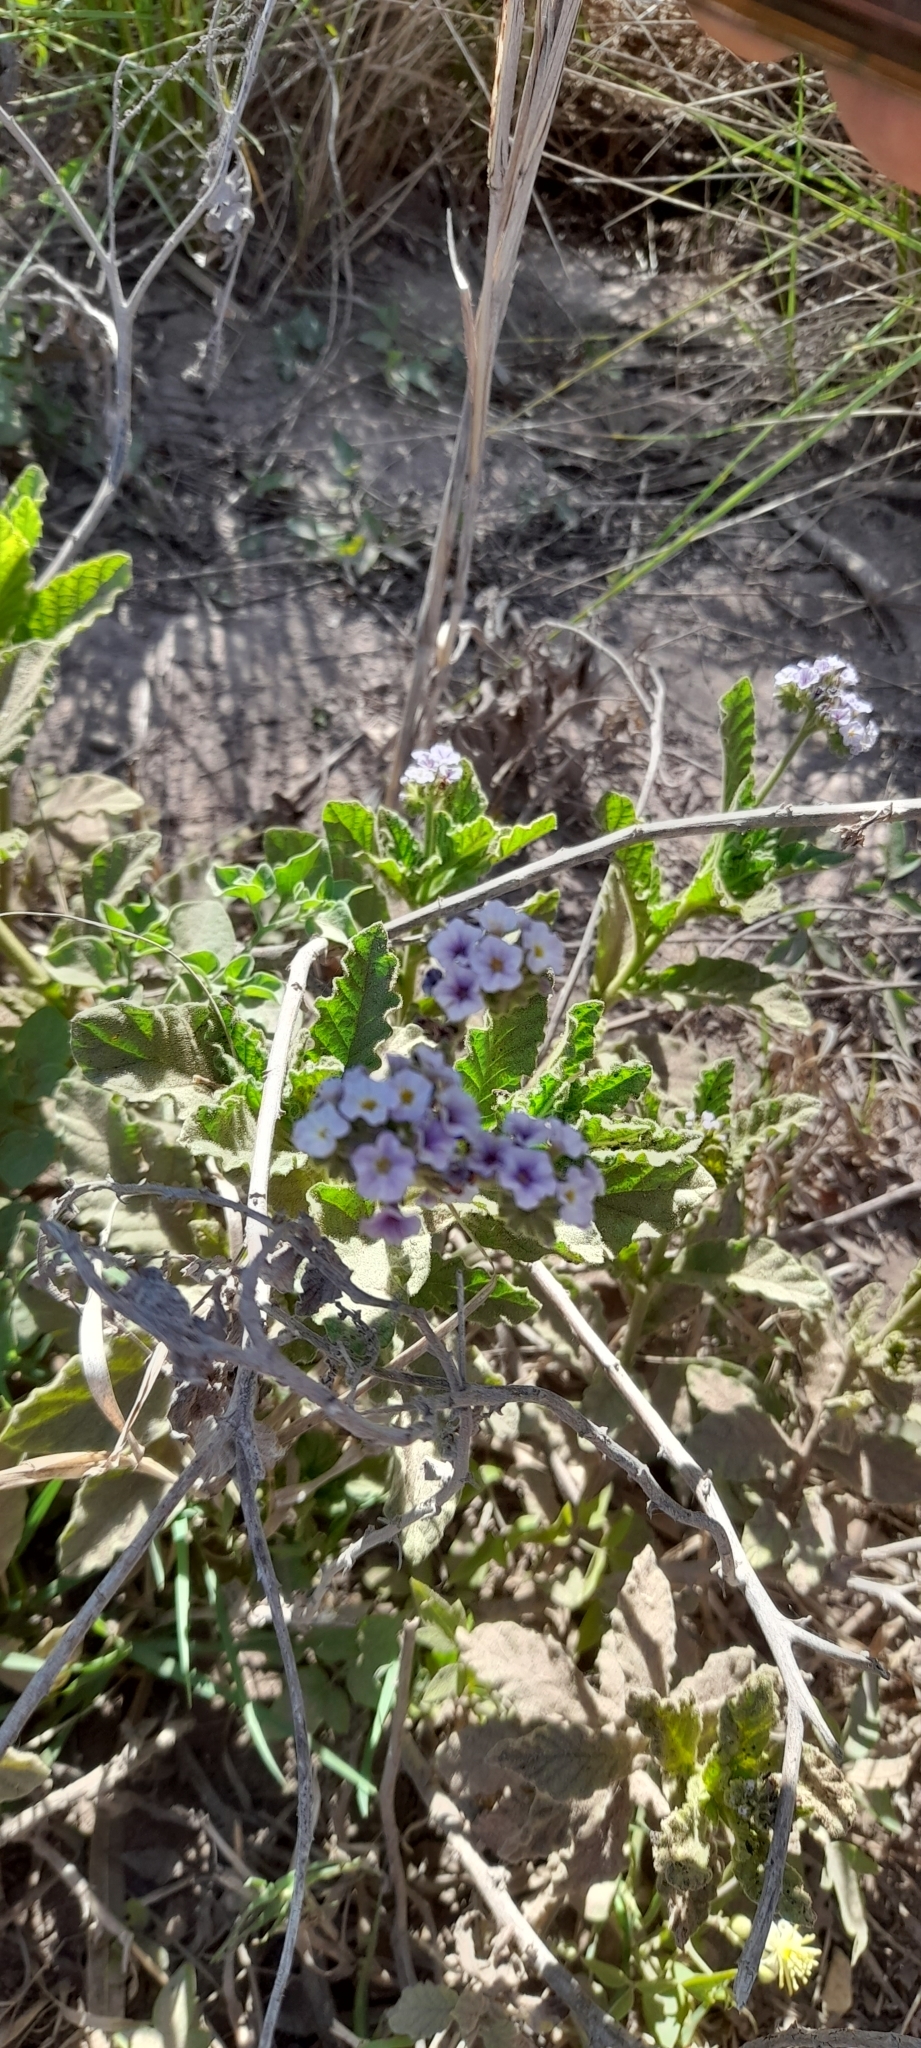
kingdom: Plantae
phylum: Tracheophyta
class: Magnoliopsida
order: Boraginales
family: Heliotropiaceae
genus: Heliotropium
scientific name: Heliotropium nicotianifolium
